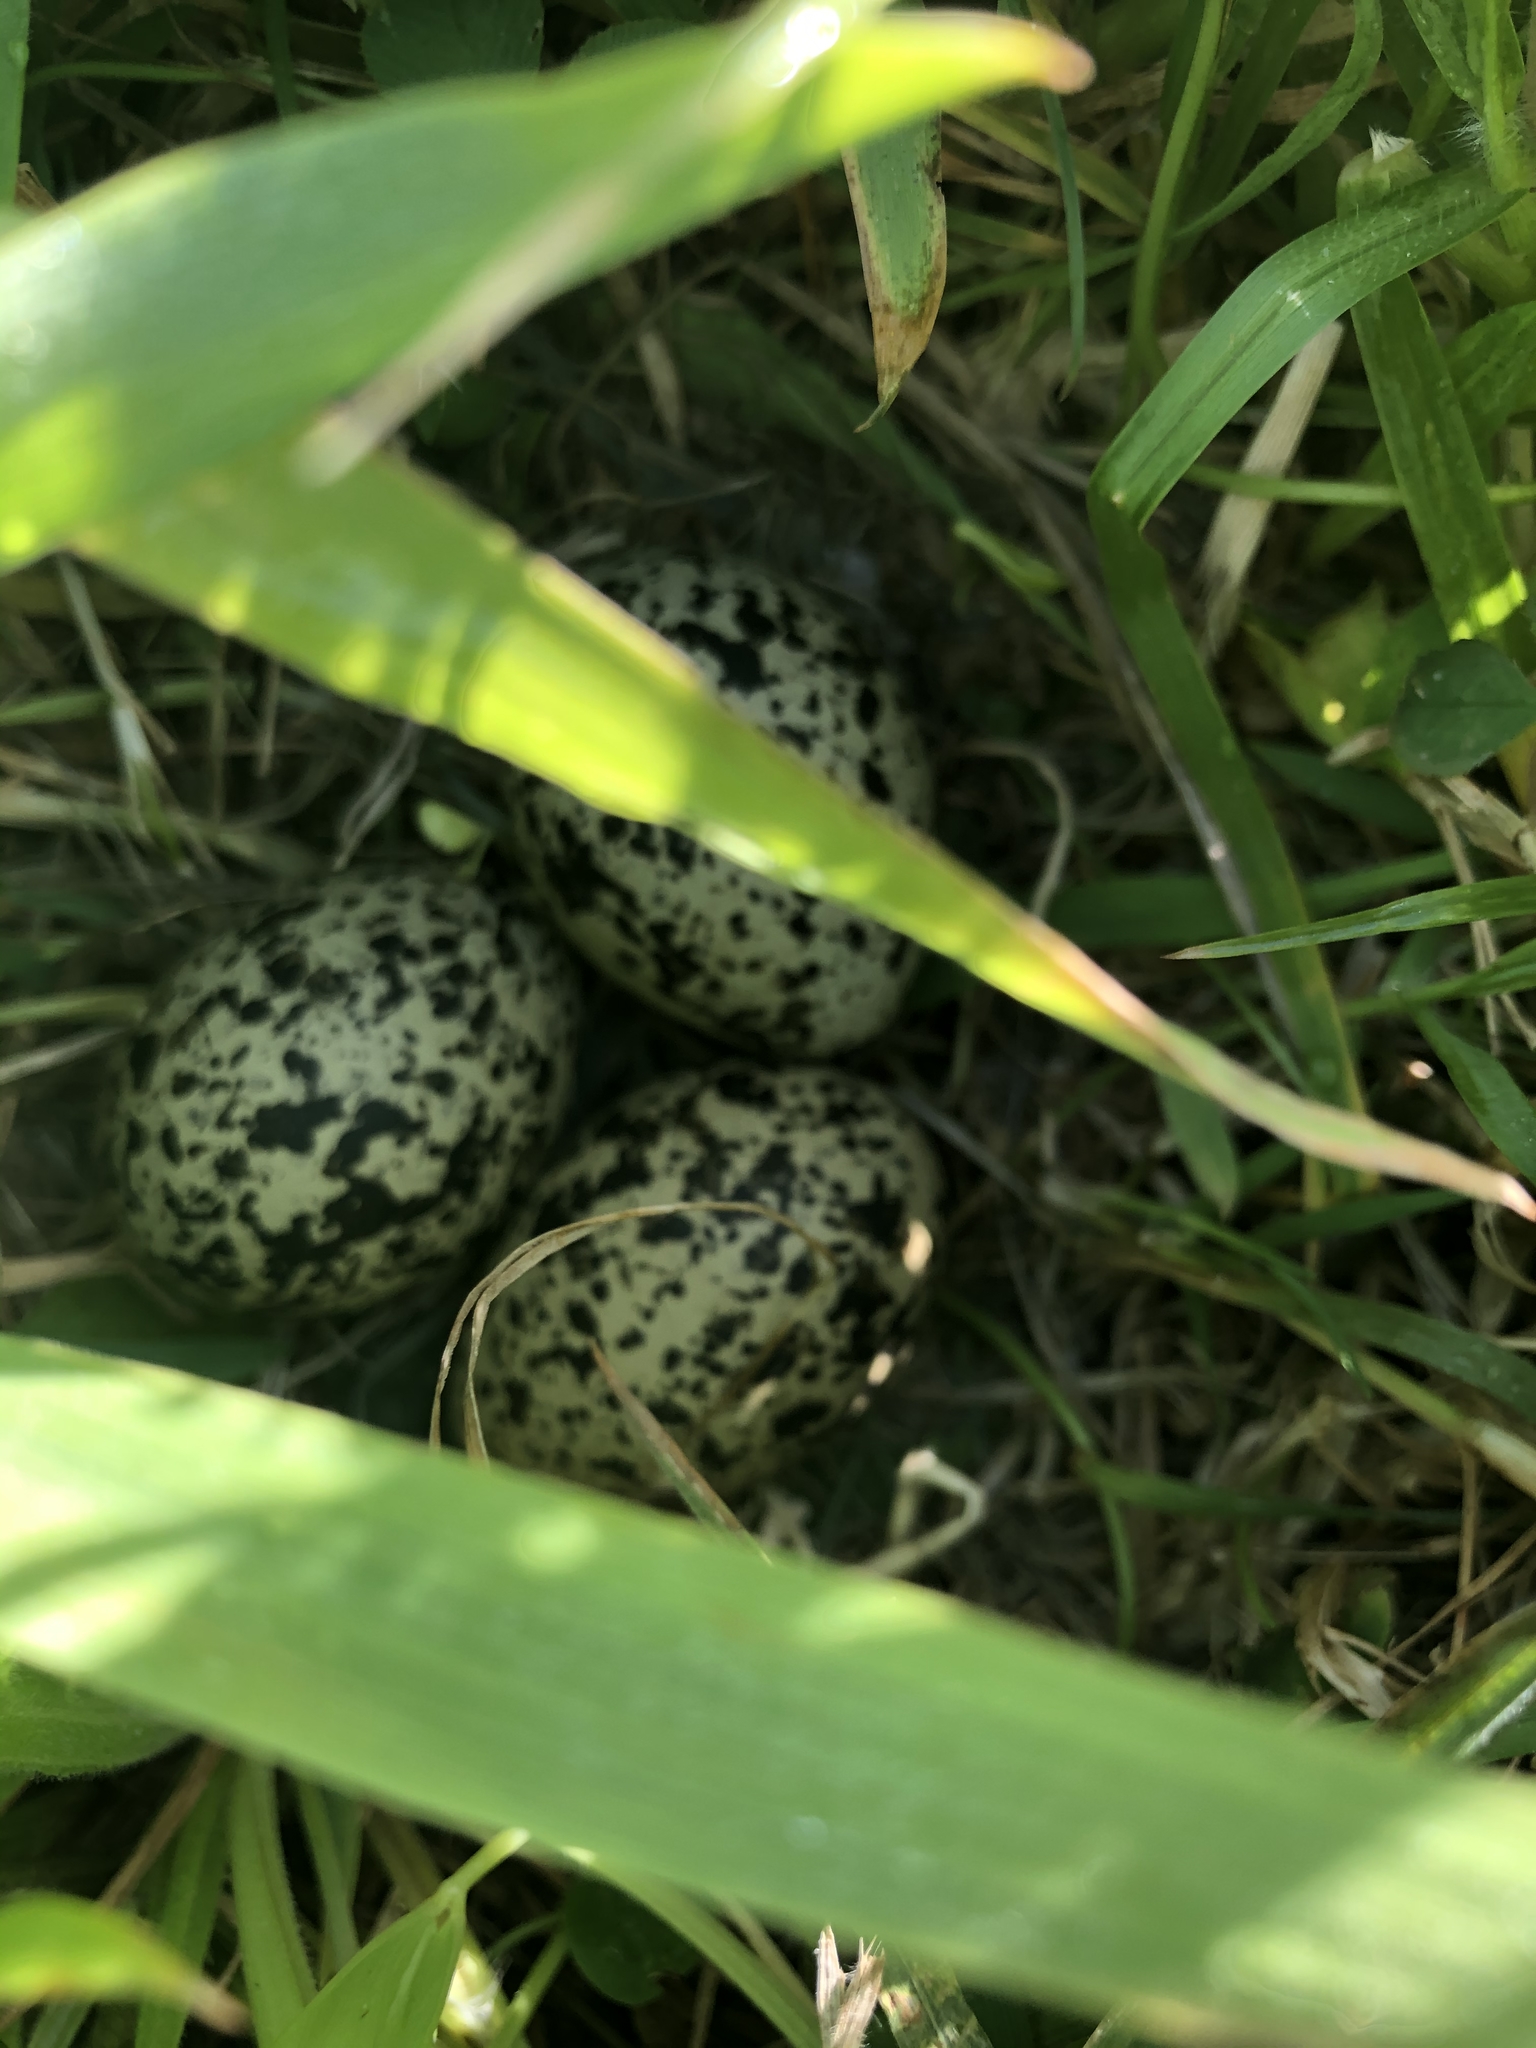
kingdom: Animalia
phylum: Chordata
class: Aves
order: Charadriiformes
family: Charadriidae
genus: Anarhynchus
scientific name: Anarhynchus
